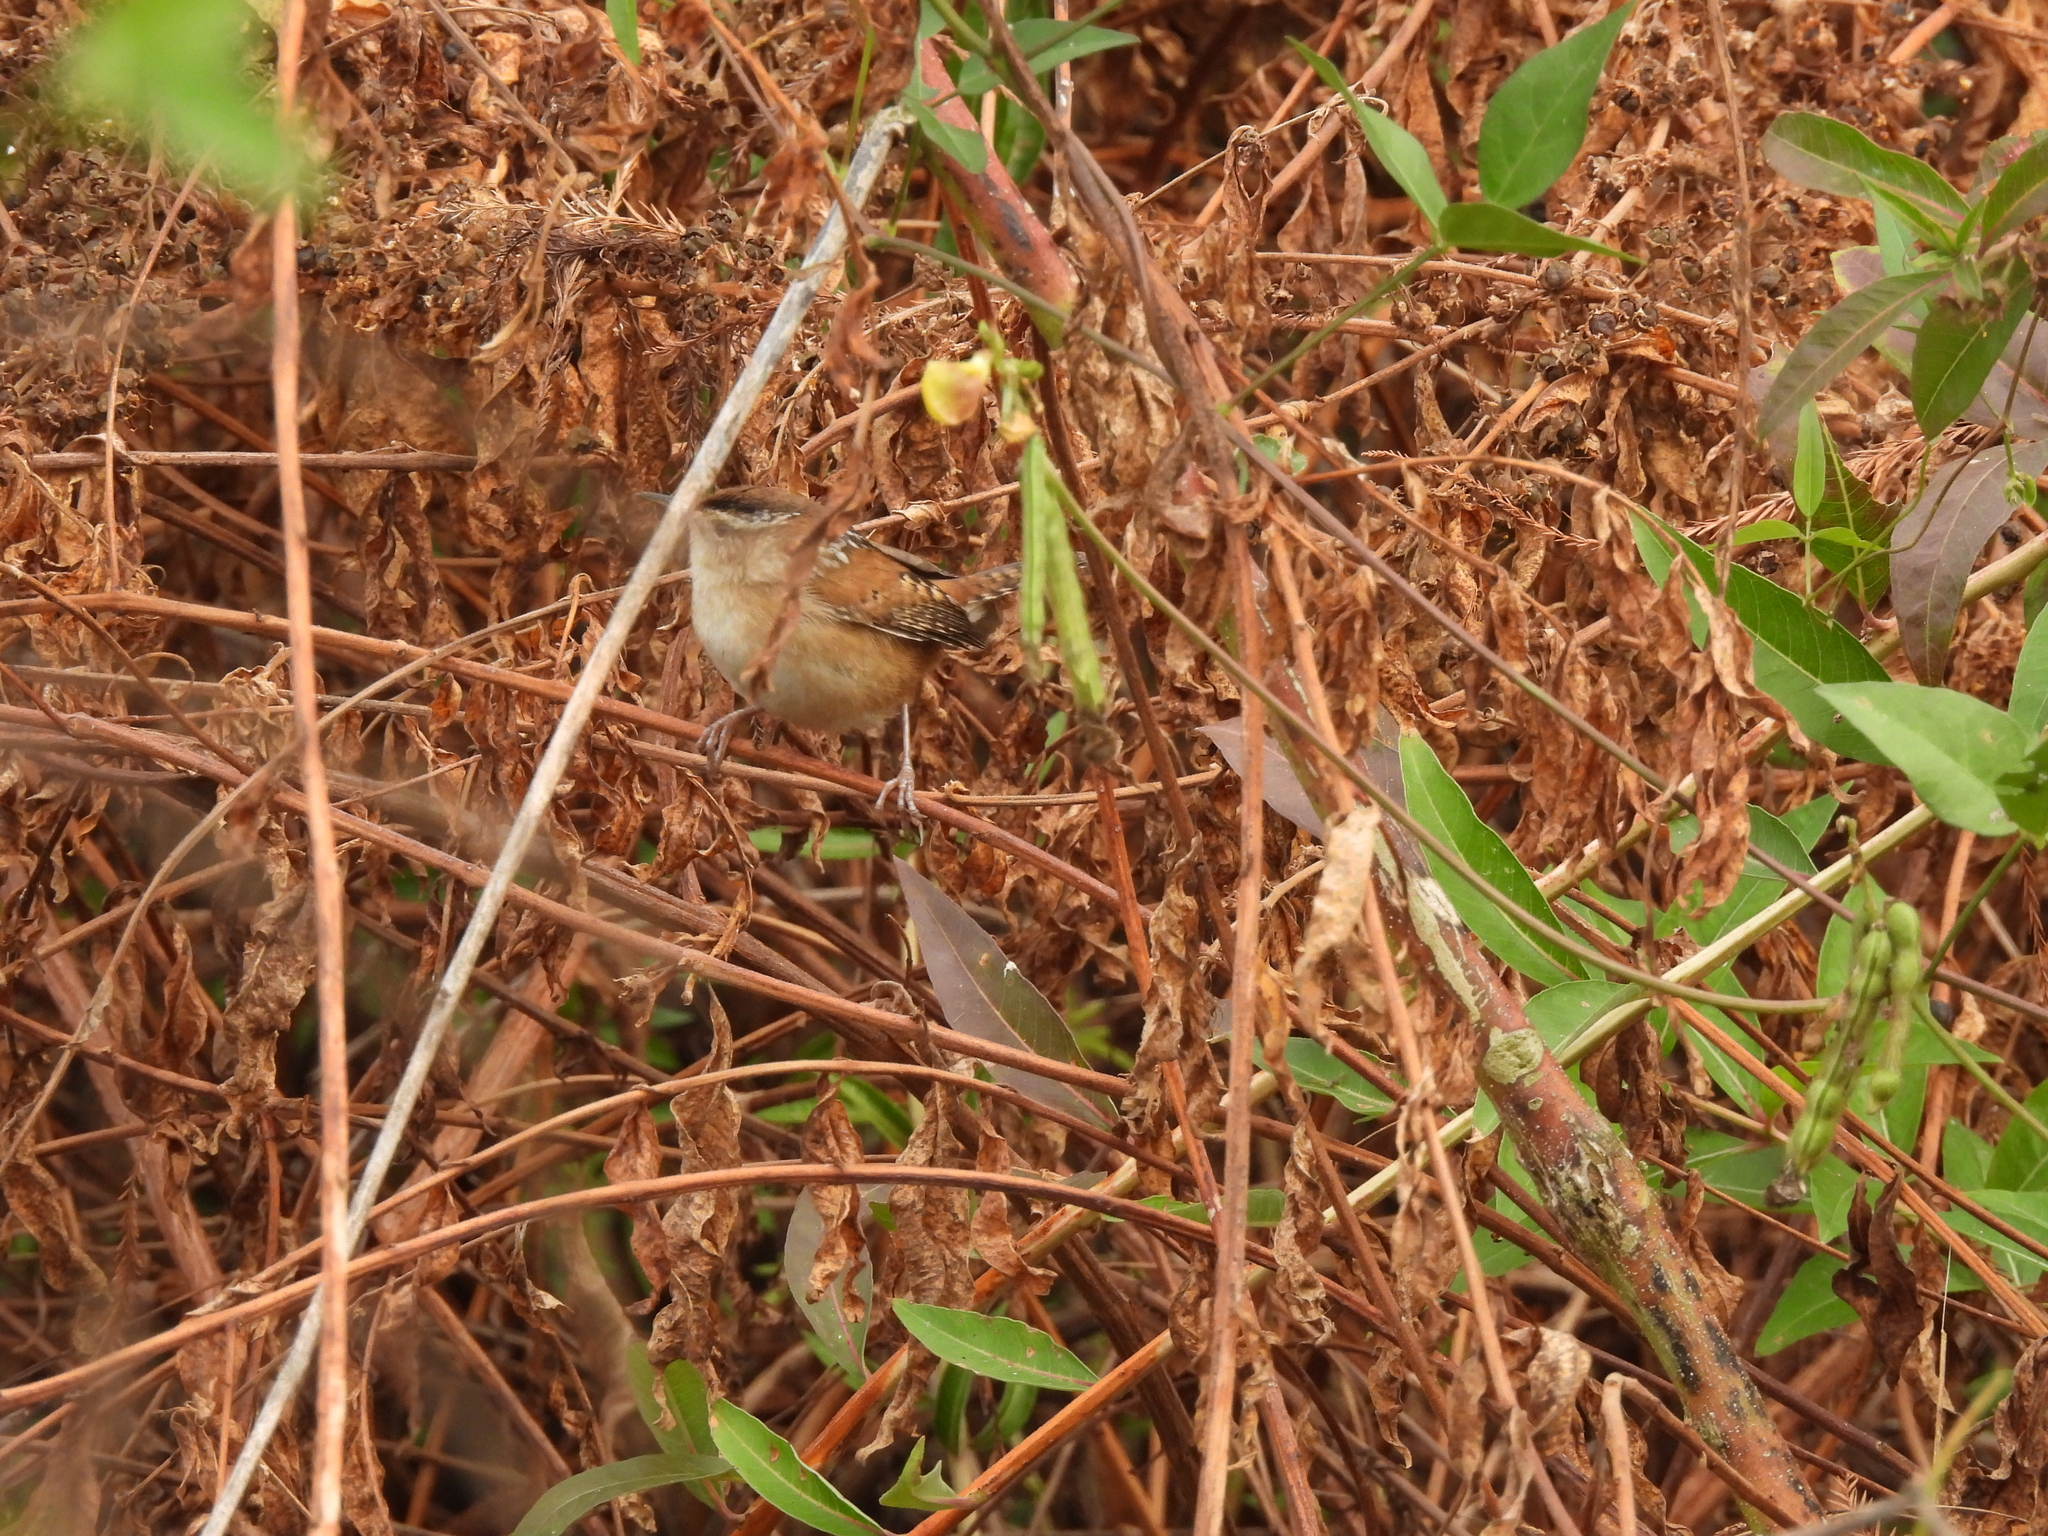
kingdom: Animalia
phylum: Chordata
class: Aves
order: Passeriformes
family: Troglodytidae
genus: Cistothorus
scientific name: Cistothorus palustris
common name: Marsh wren
